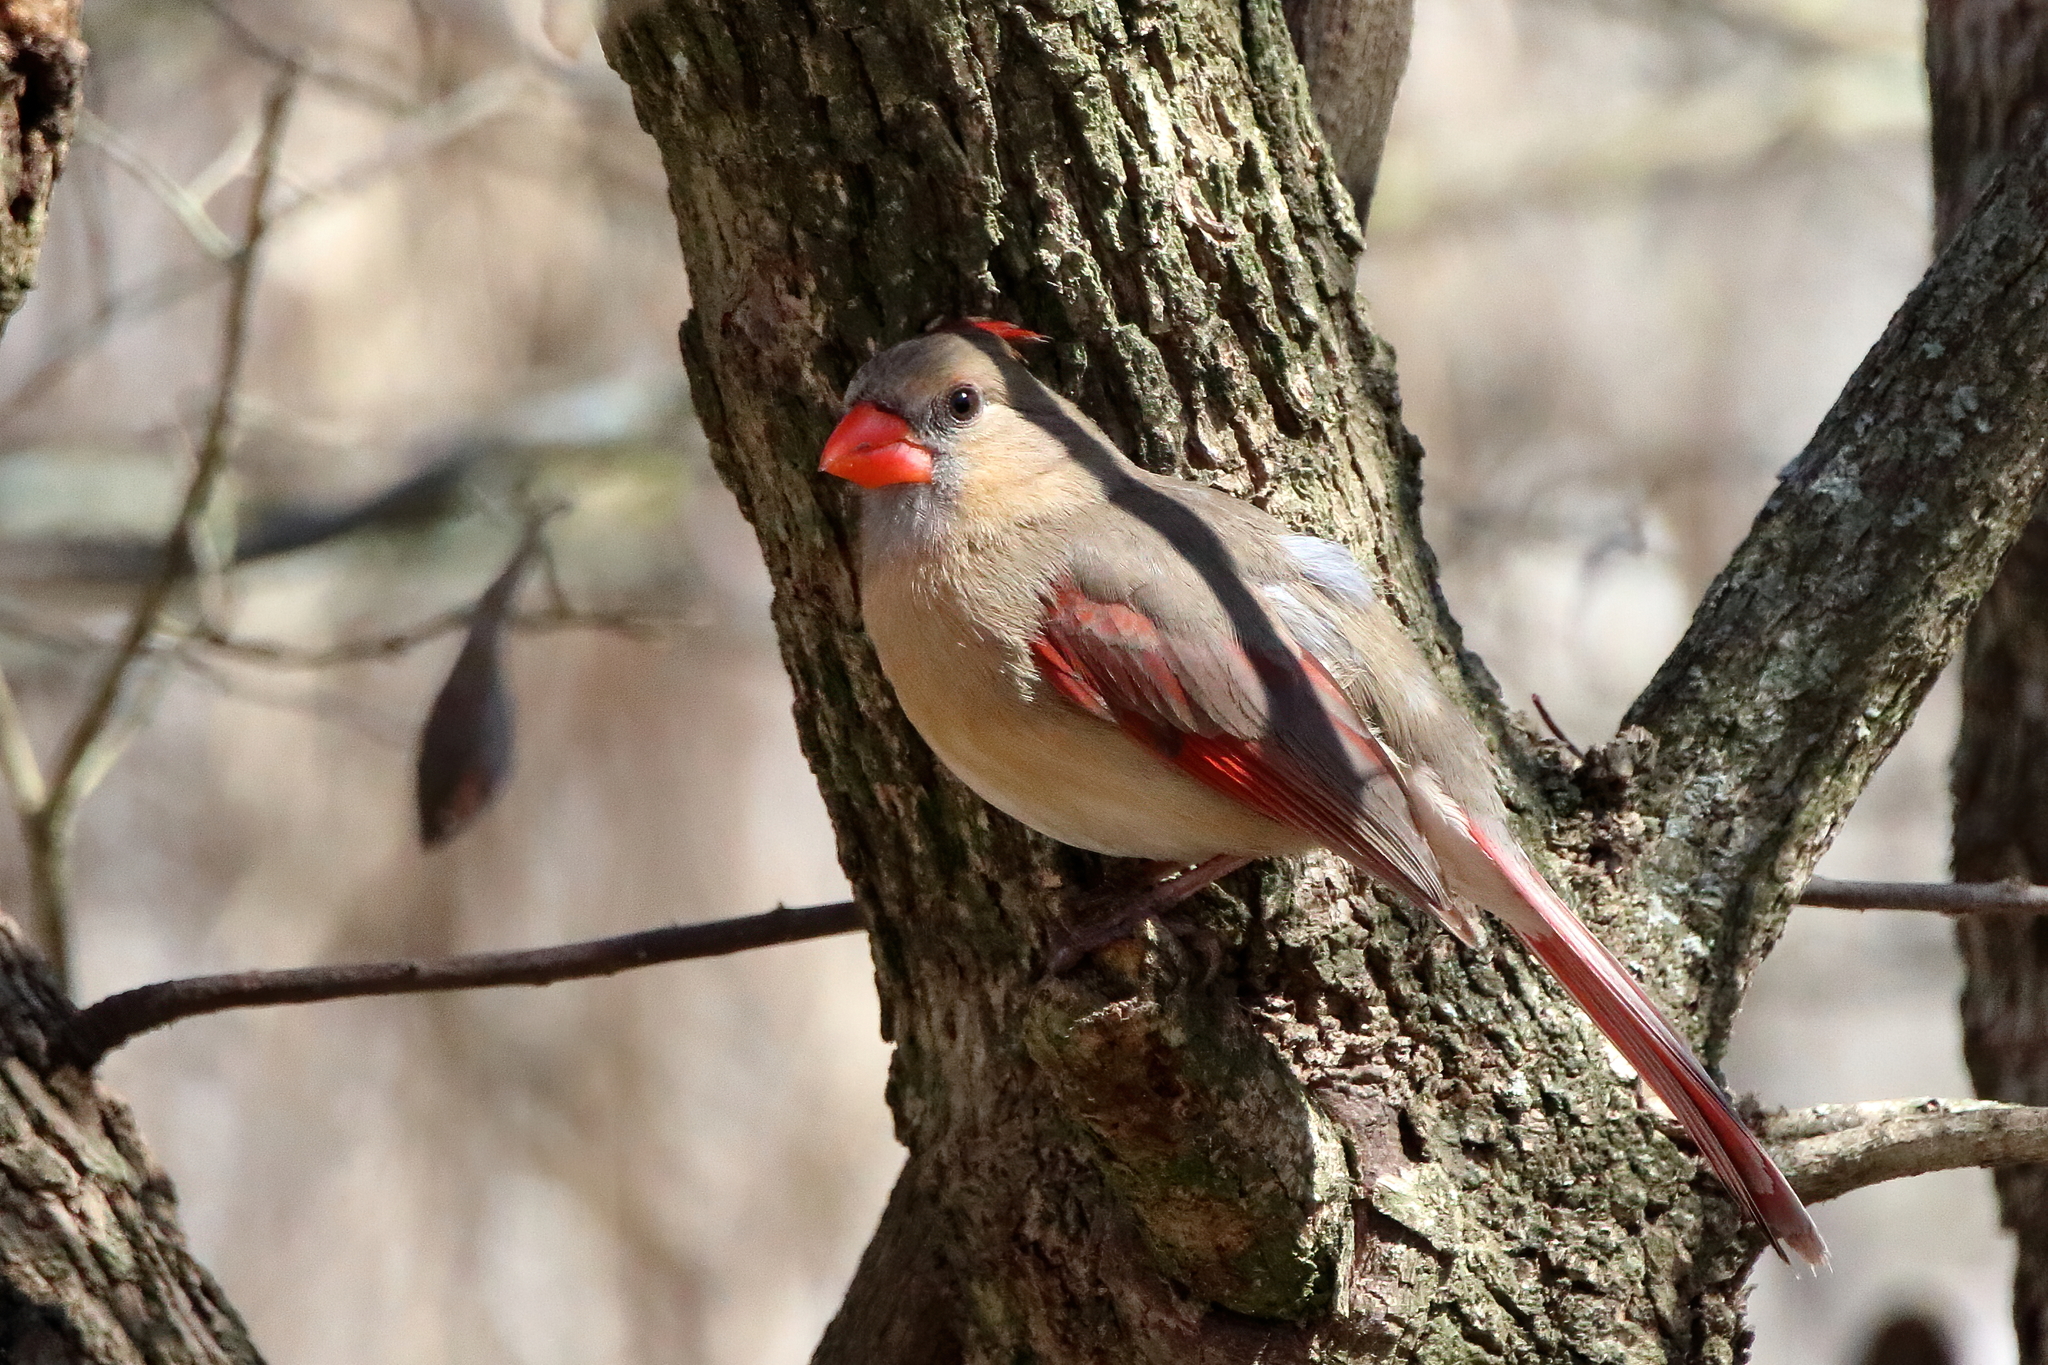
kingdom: Animalia
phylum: Chordata
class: Aves
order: Passeriformes
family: Cardinalidae
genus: Cardinalis
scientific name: Cardinalis cardinalis
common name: Northern cardinal
